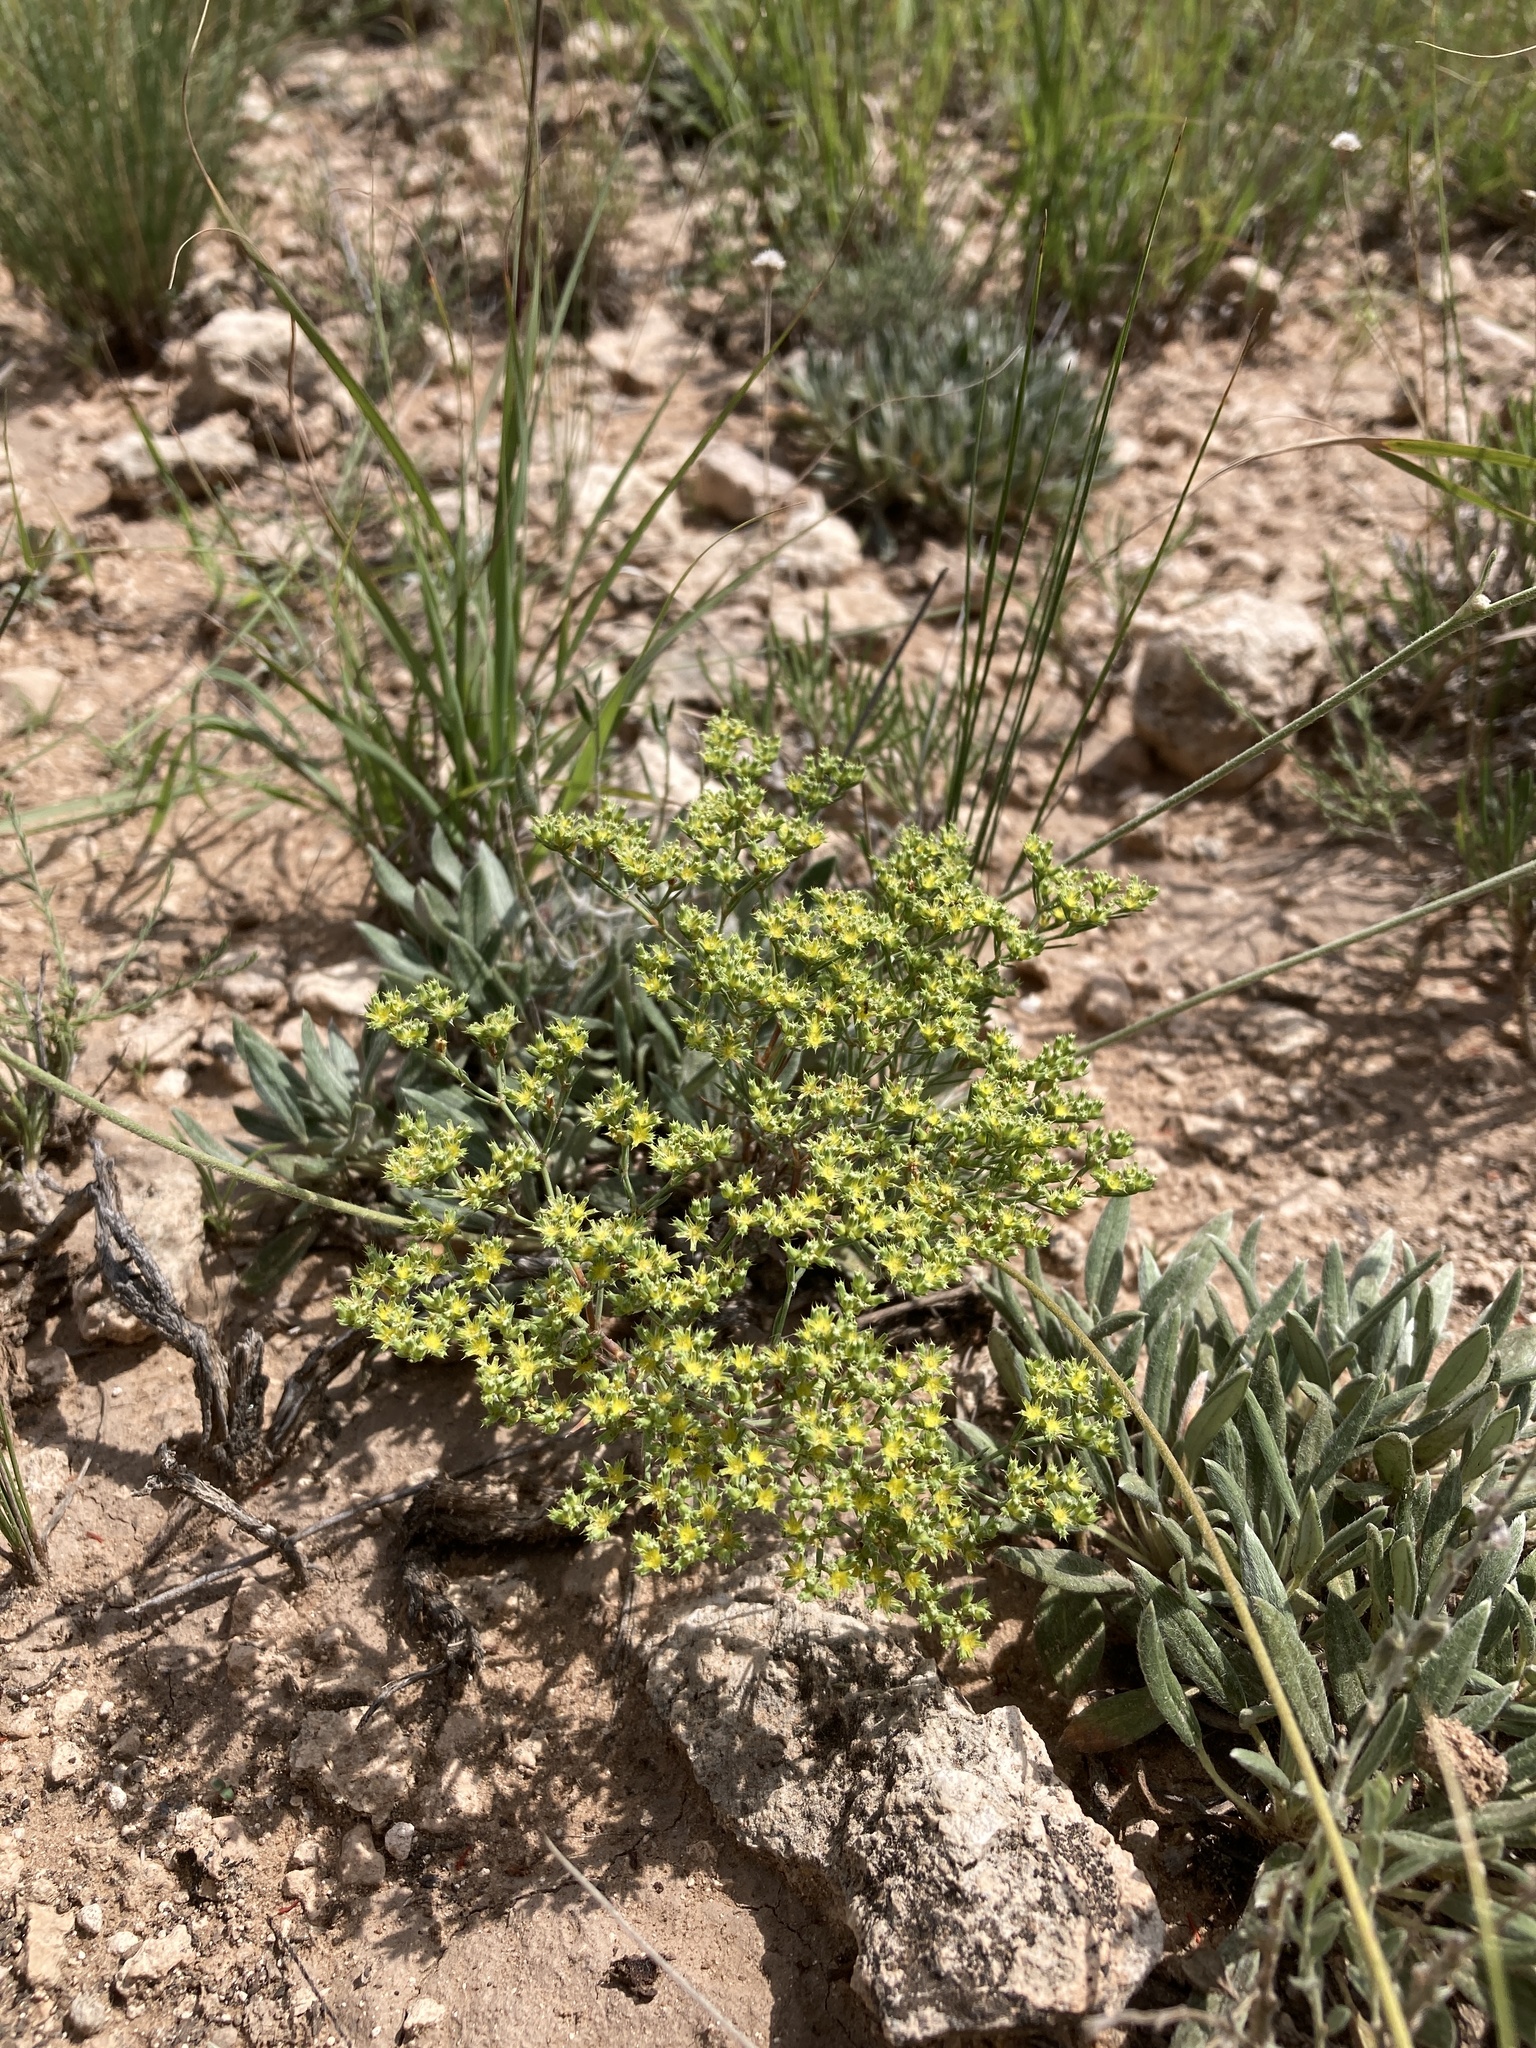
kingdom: Plantae
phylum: Tracheophyta
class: Magnoliopsida
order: Caryophyllales
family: Caryophyllaceae
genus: Paronychia
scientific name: Paronychia jamesii
